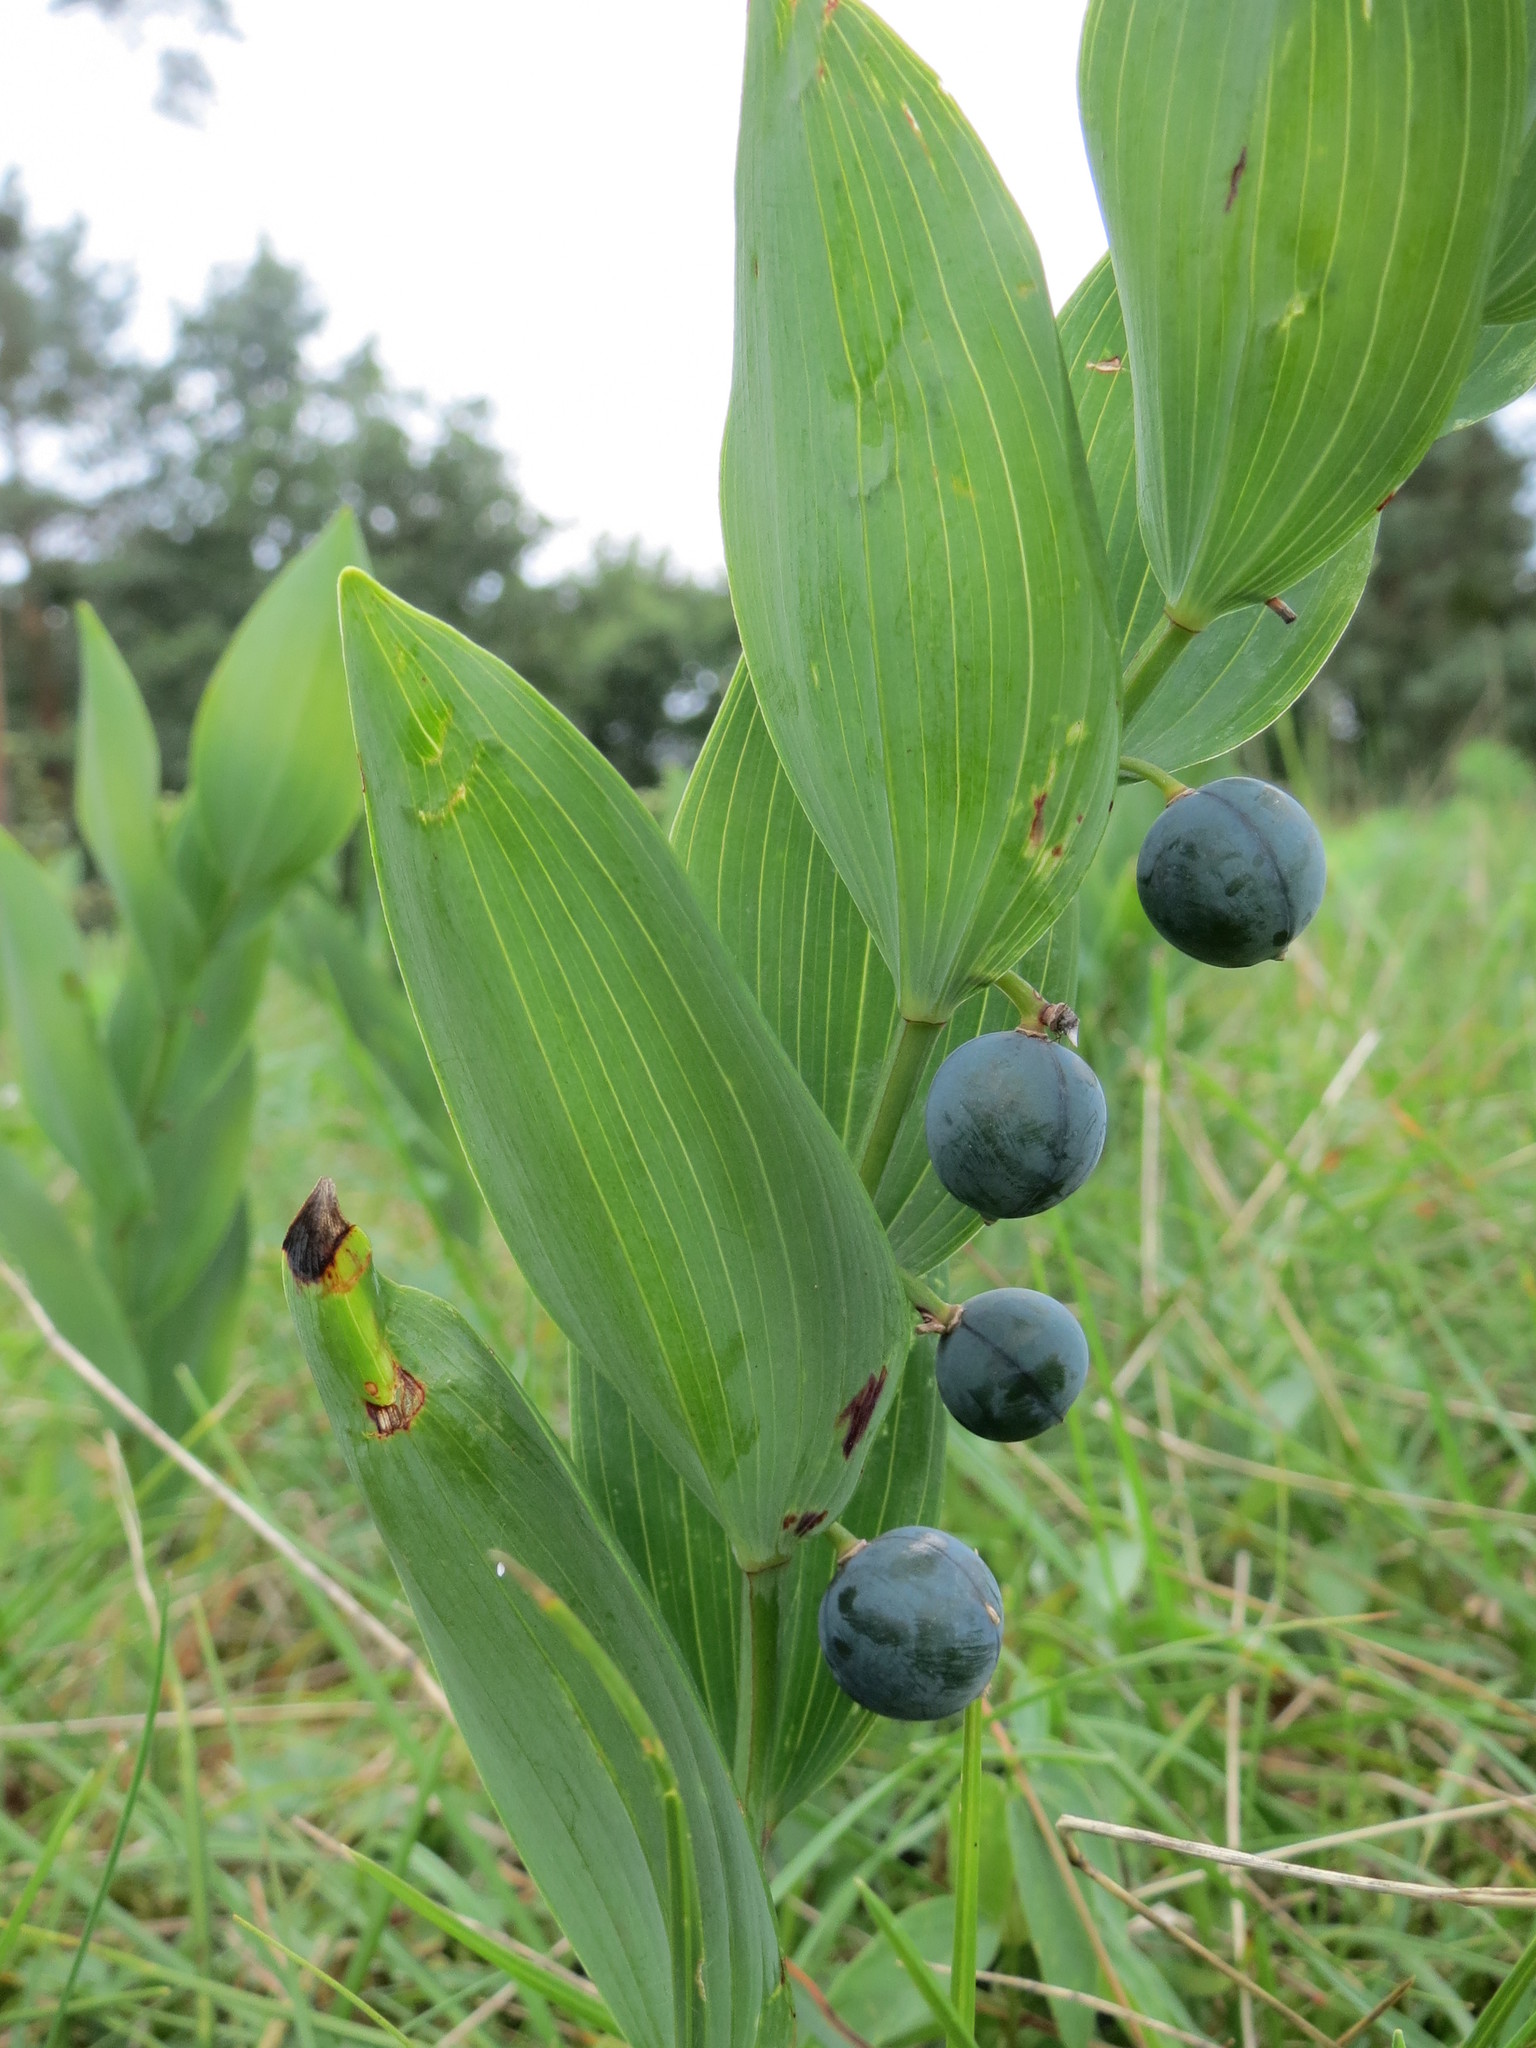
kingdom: Plantae
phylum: Tracheophyta
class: Liliopsida
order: Asparagales
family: Asparagaceae
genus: Polygonatum
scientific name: Polygonatum odoratum
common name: Angular solomon's-seal
